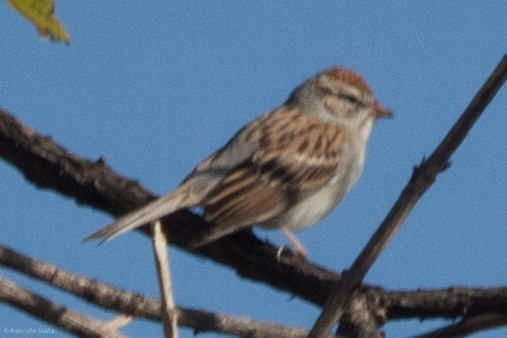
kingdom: Animalia
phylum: Chordata
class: Aves
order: Passeriformes
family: Passerellidae
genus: Spizella
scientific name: Spizella passerina
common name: Chipping sparrow
